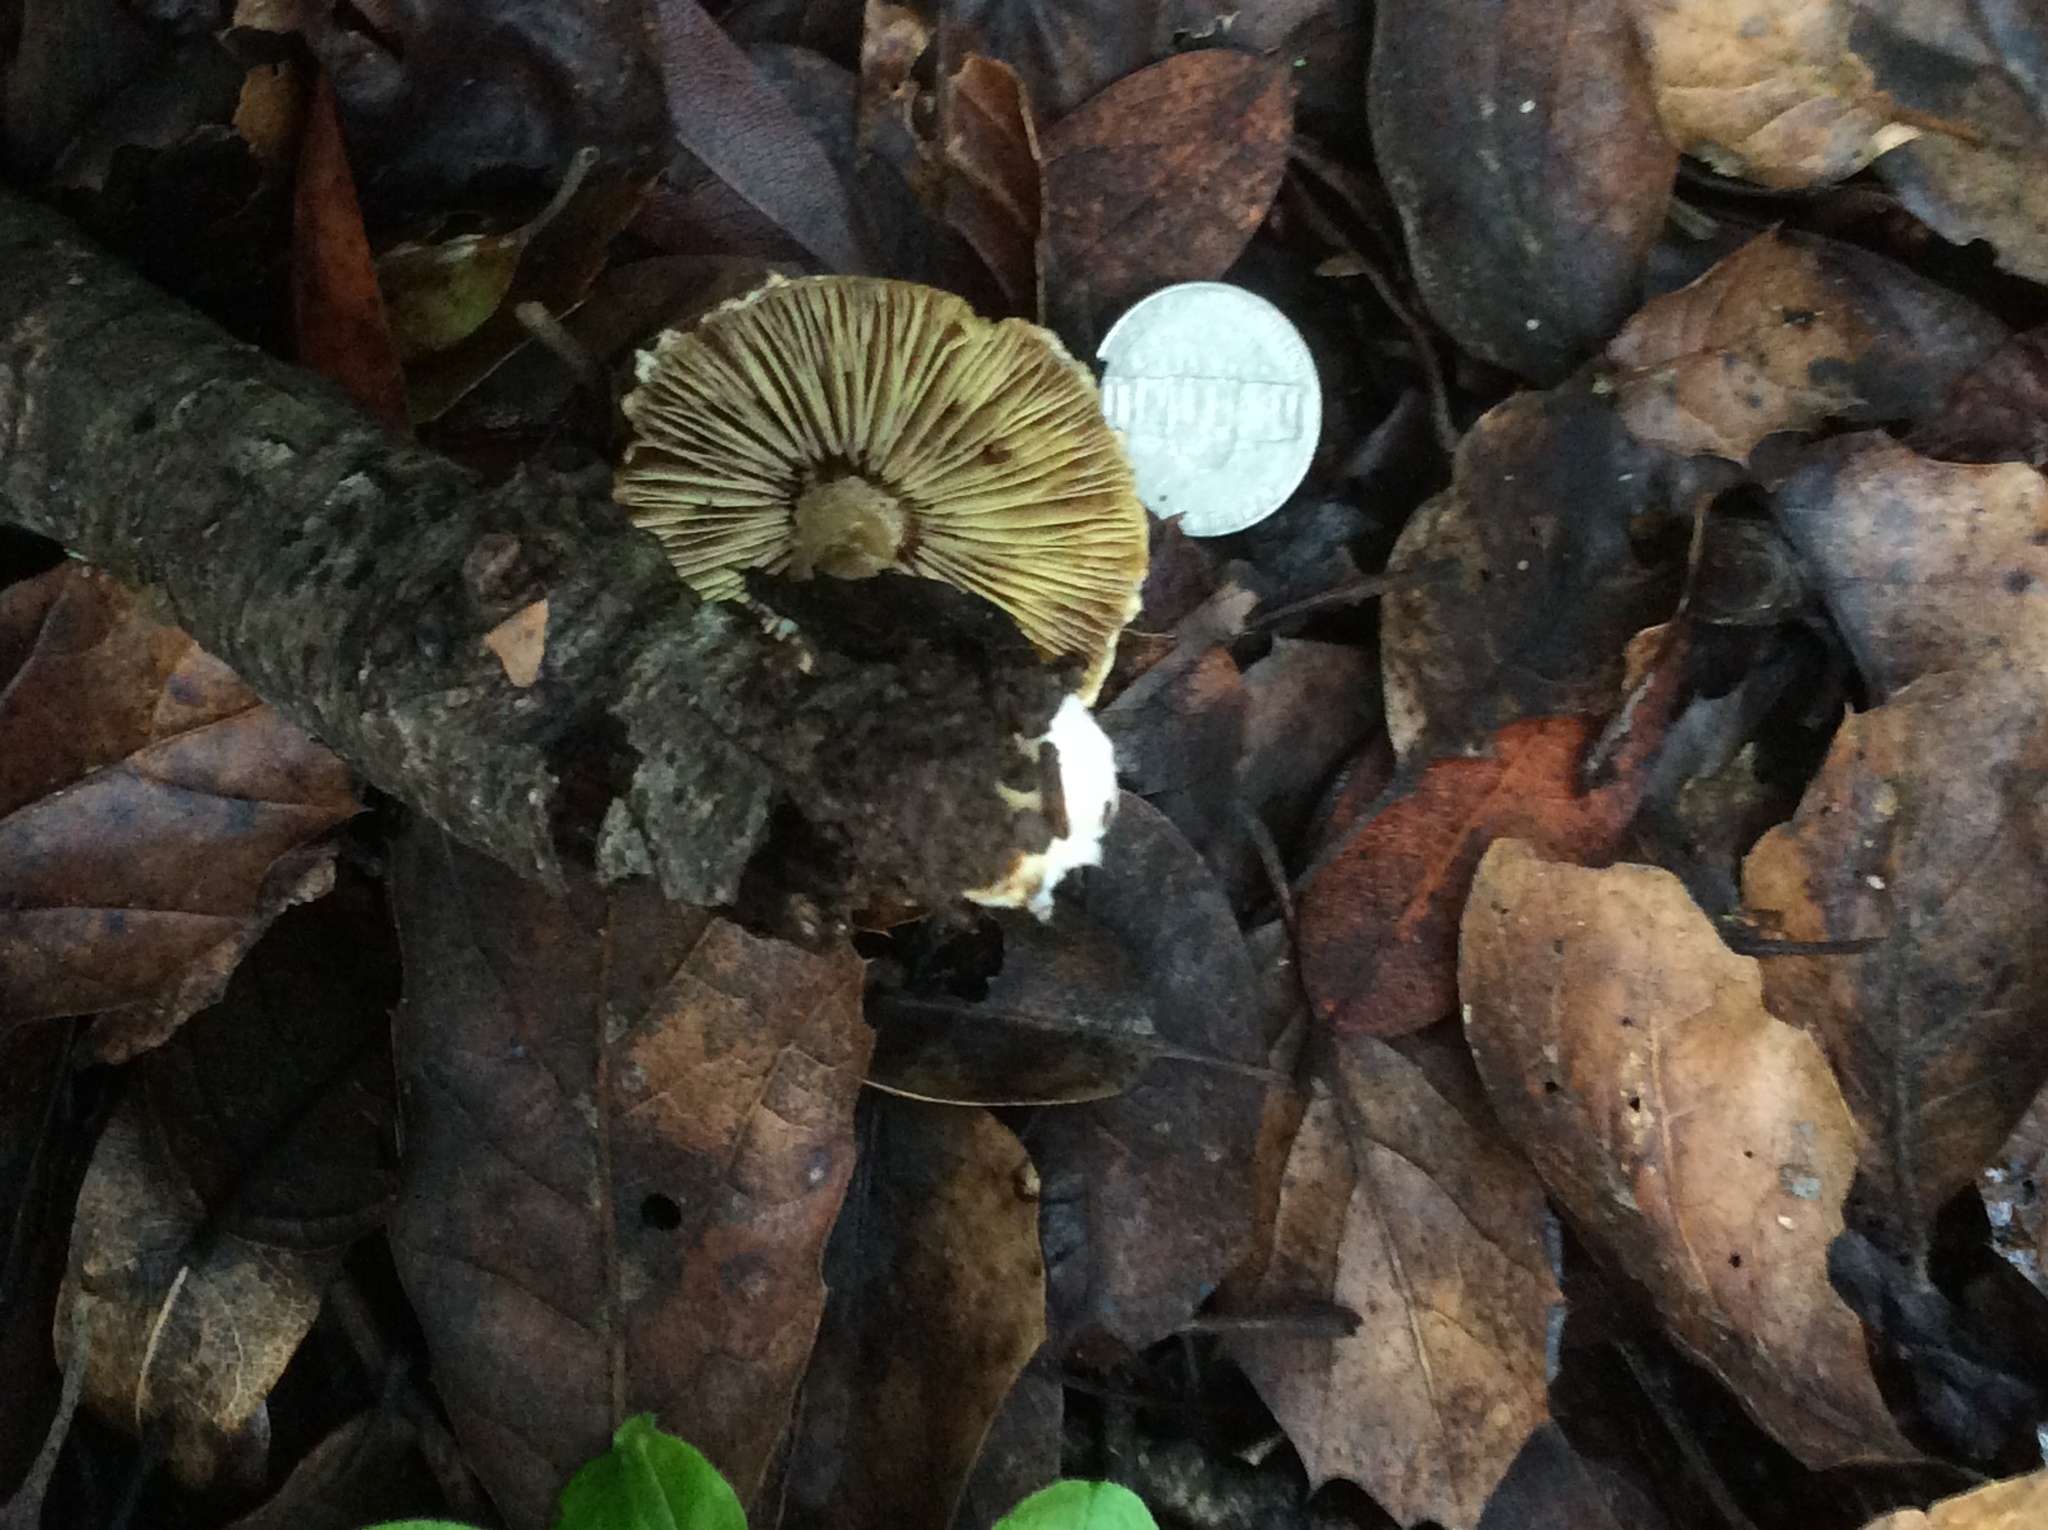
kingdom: Fungi
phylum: Basidiomycota
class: Agaricomycetes
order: Agaricales
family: Inocybaceae
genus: Pseudosperma
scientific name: Pseudosperma sororium
